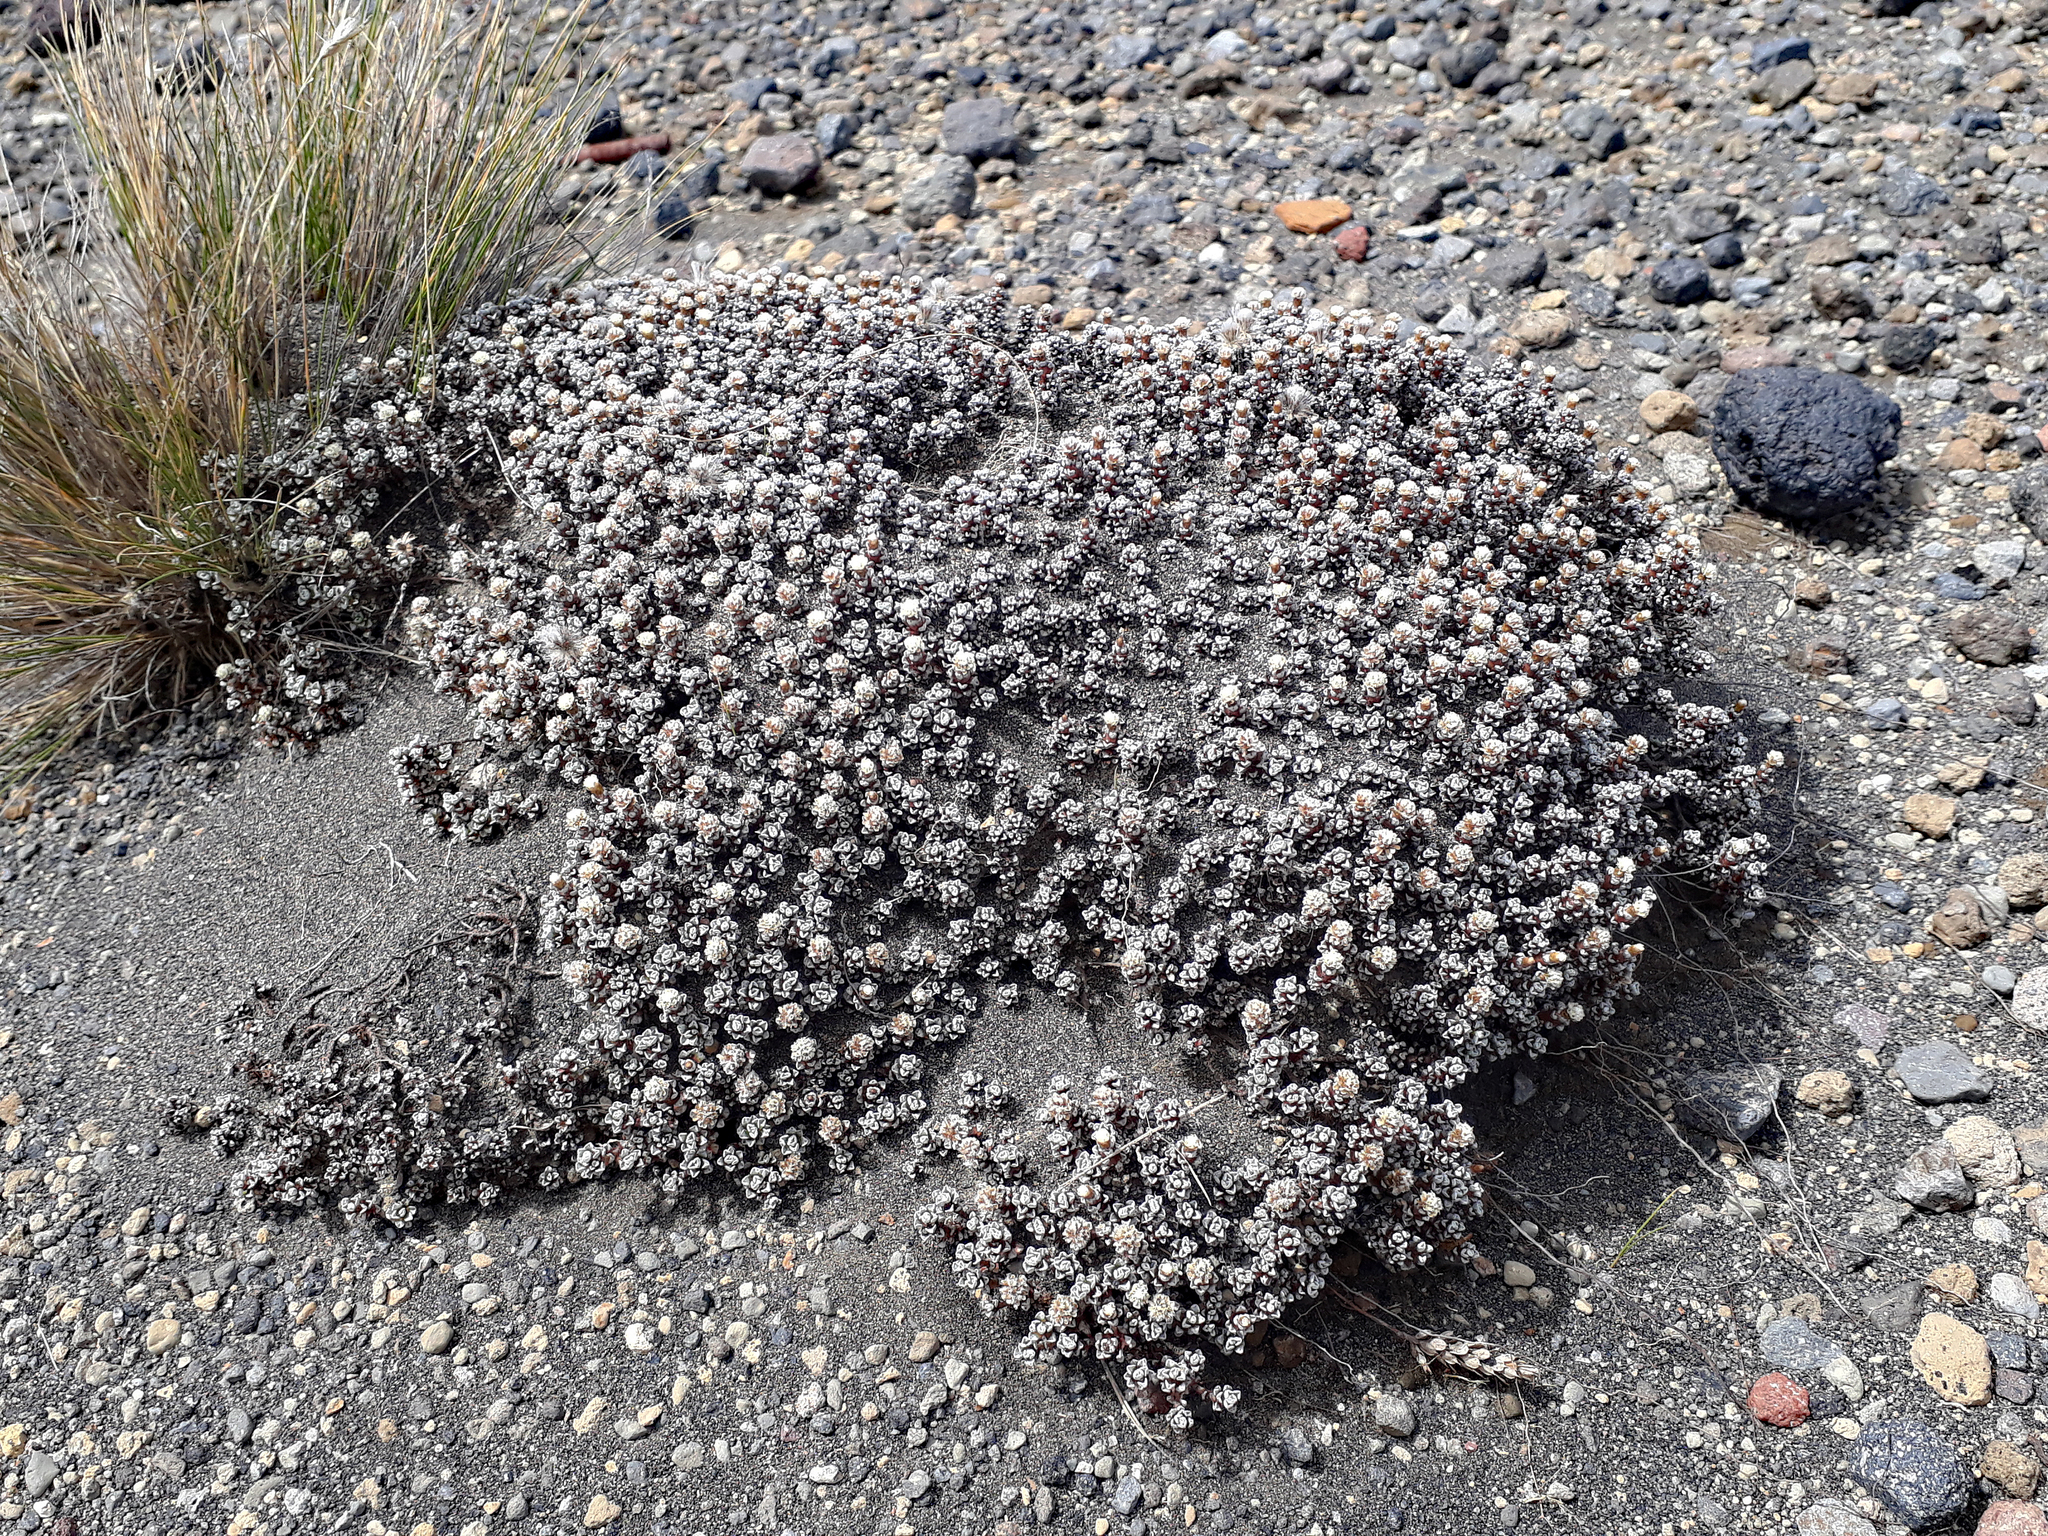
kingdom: Plantae
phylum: Tracheophyta
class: Magnoliopsida
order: Asterales
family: Asteraceae
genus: Raoulia
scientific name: Raoulia albosericea
